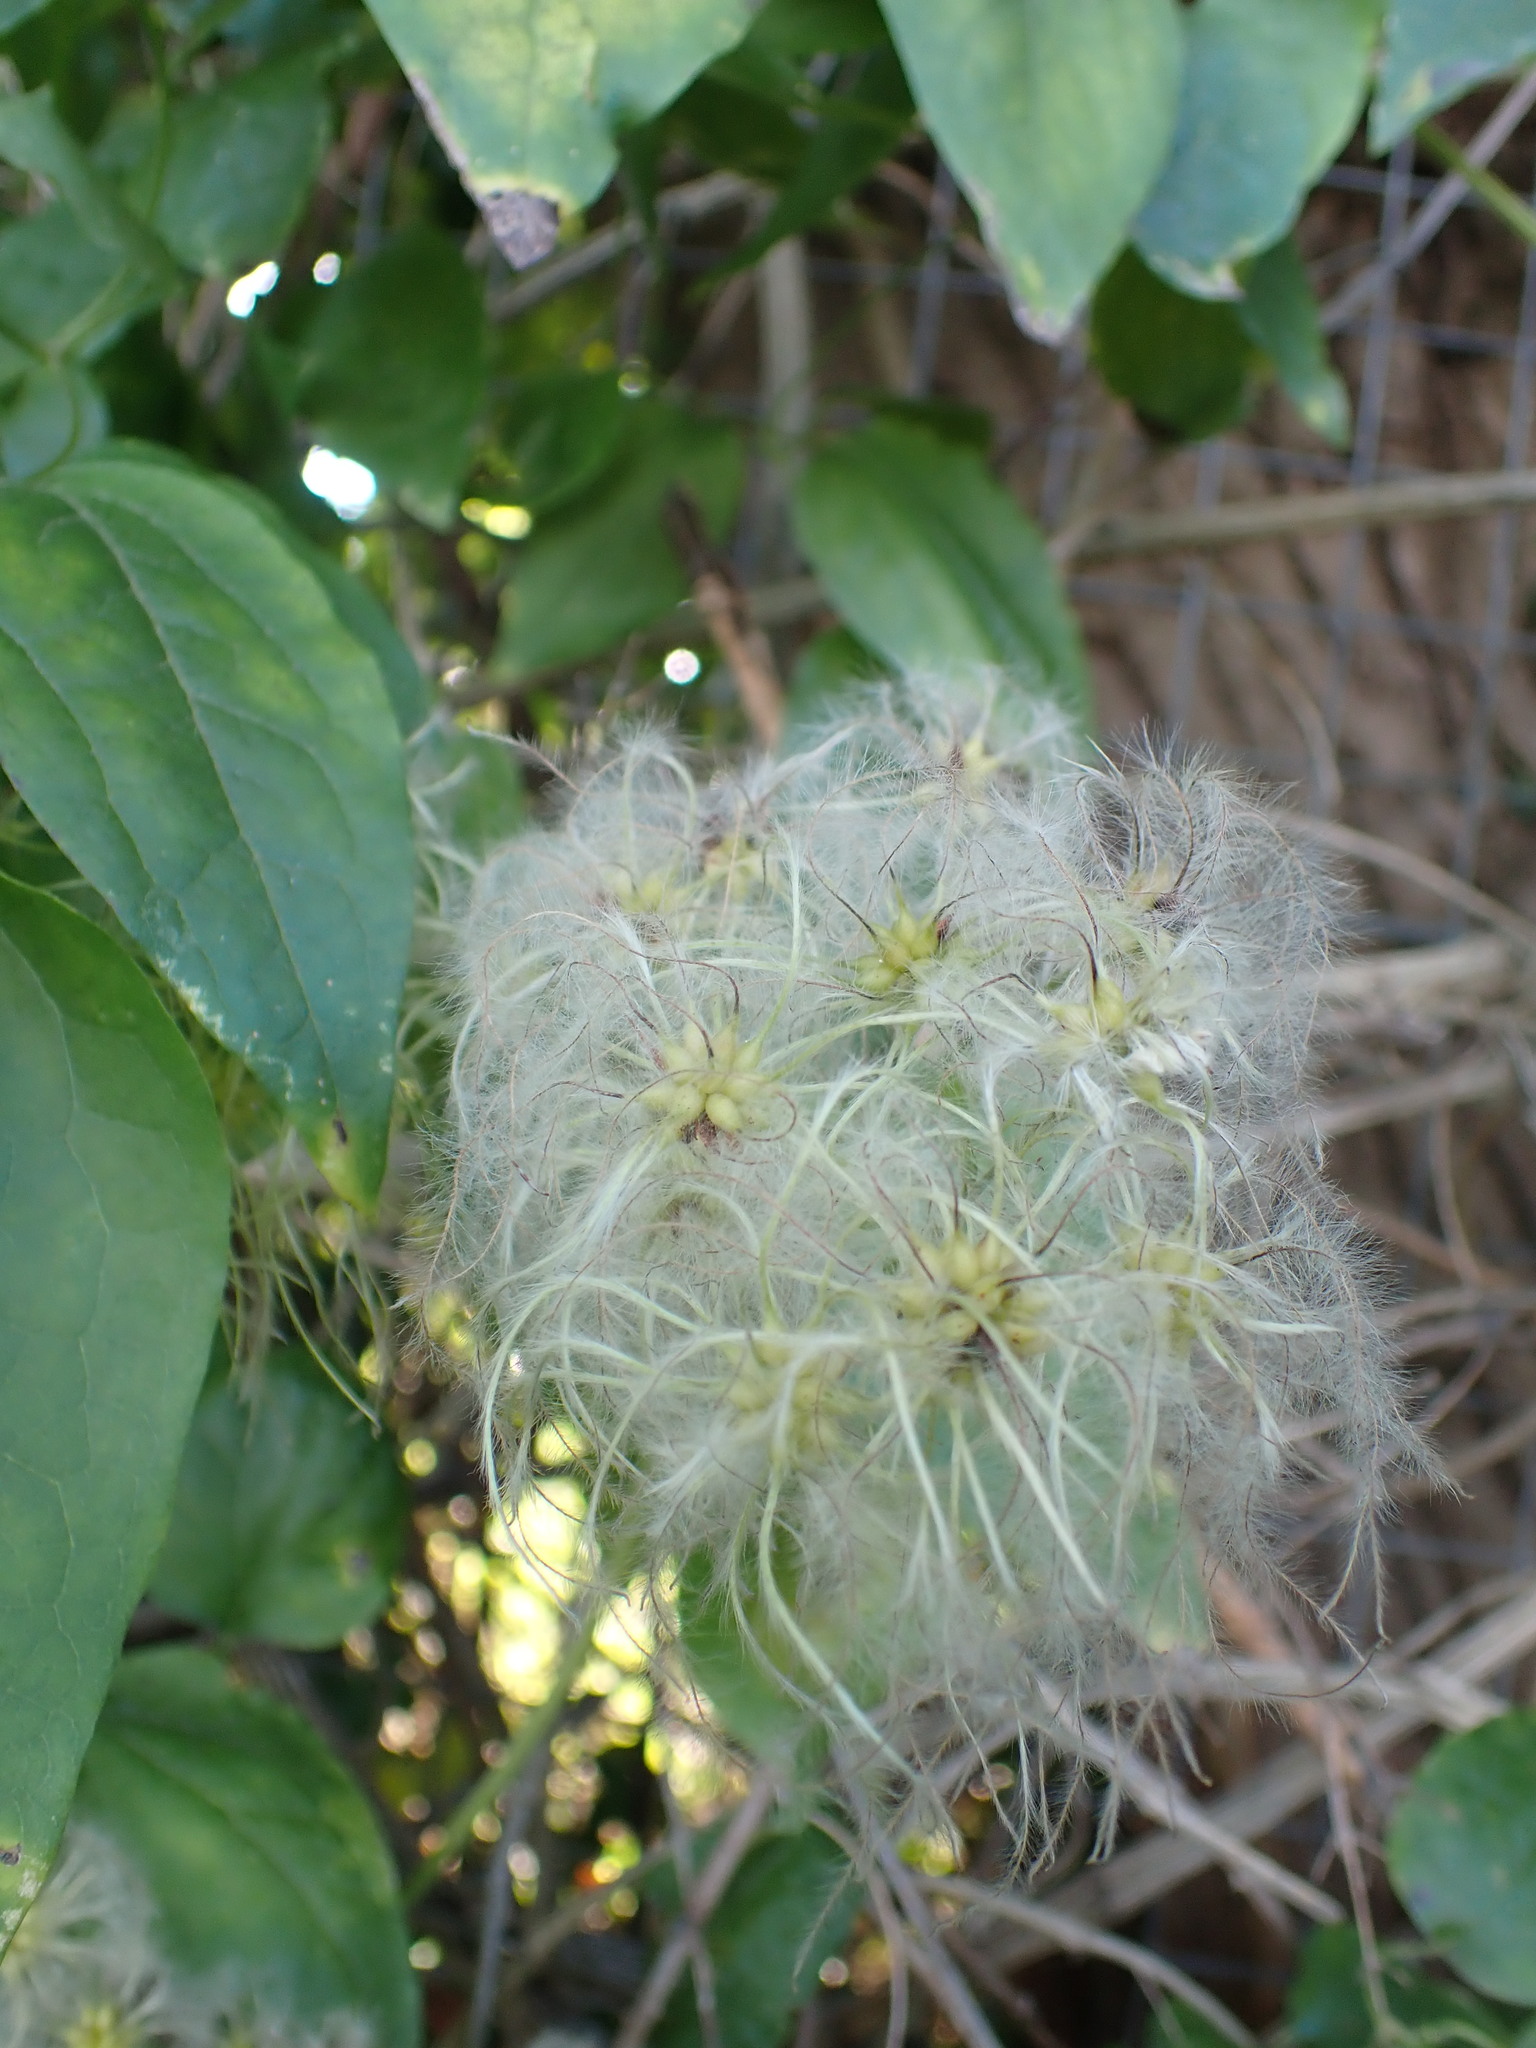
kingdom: Plantae
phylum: Tracheophyta
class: Magnoliopsida
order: Ranunculales
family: Ranunculaceae
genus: Clematis
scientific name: Clematis vitalba
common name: Evergreen clematis
